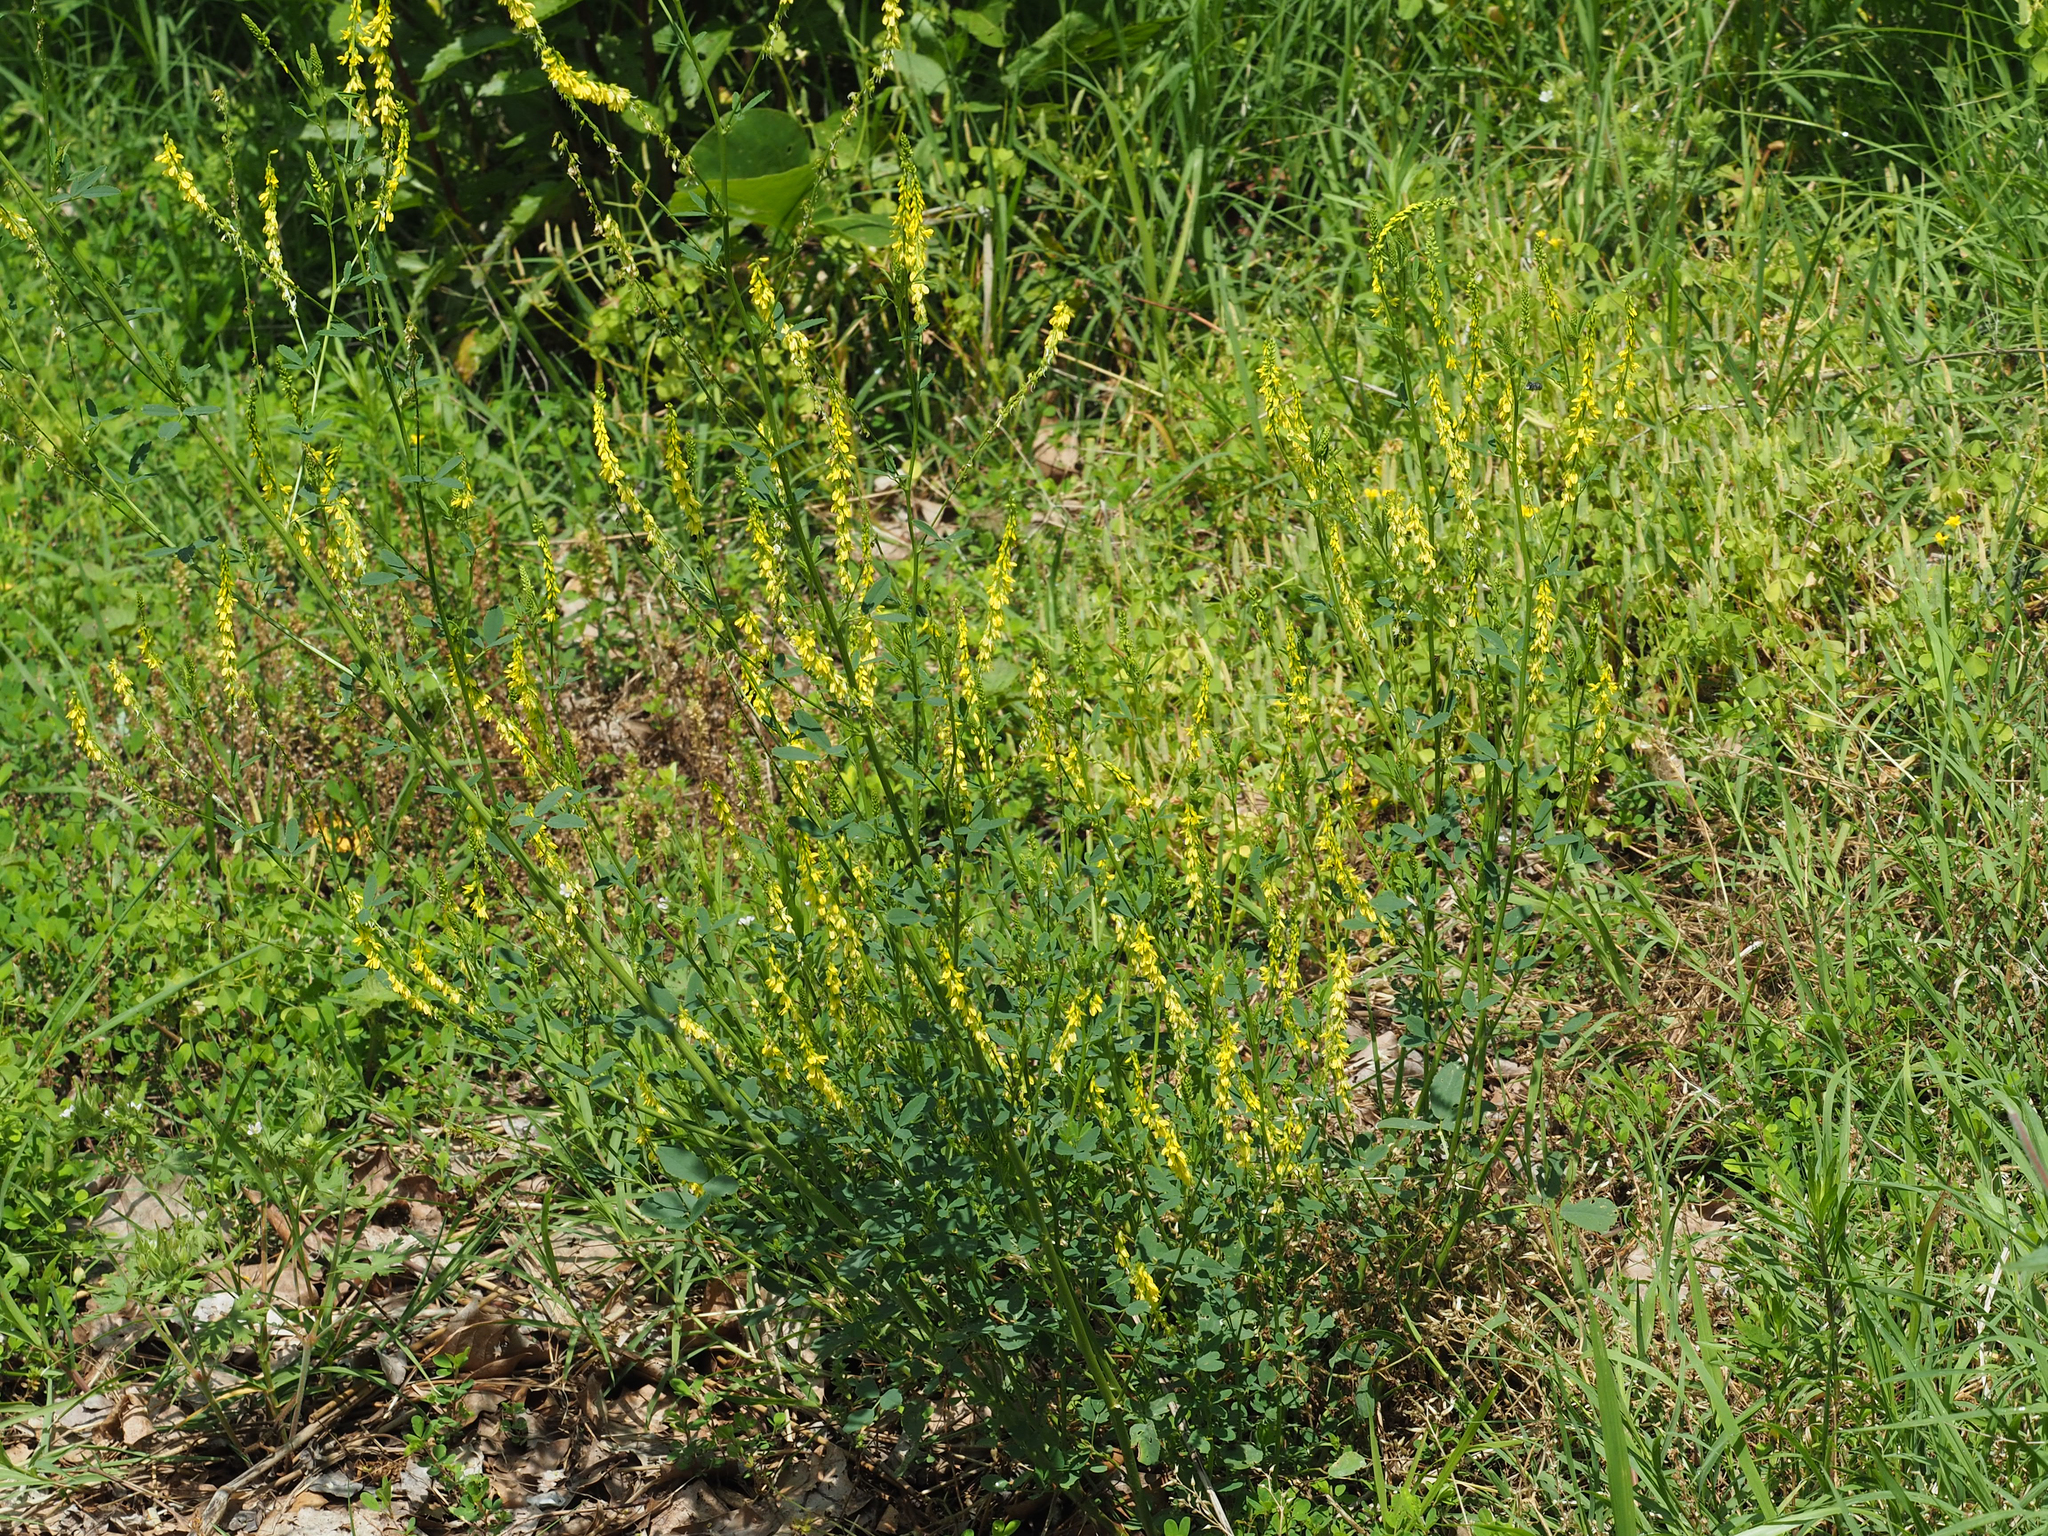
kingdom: Plantae
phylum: Tracheophyta
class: Magnoliopsida
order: Fabales
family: Fabaceae
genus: Melilotus
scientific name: Melilotus officinalis
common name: Sweetclover
